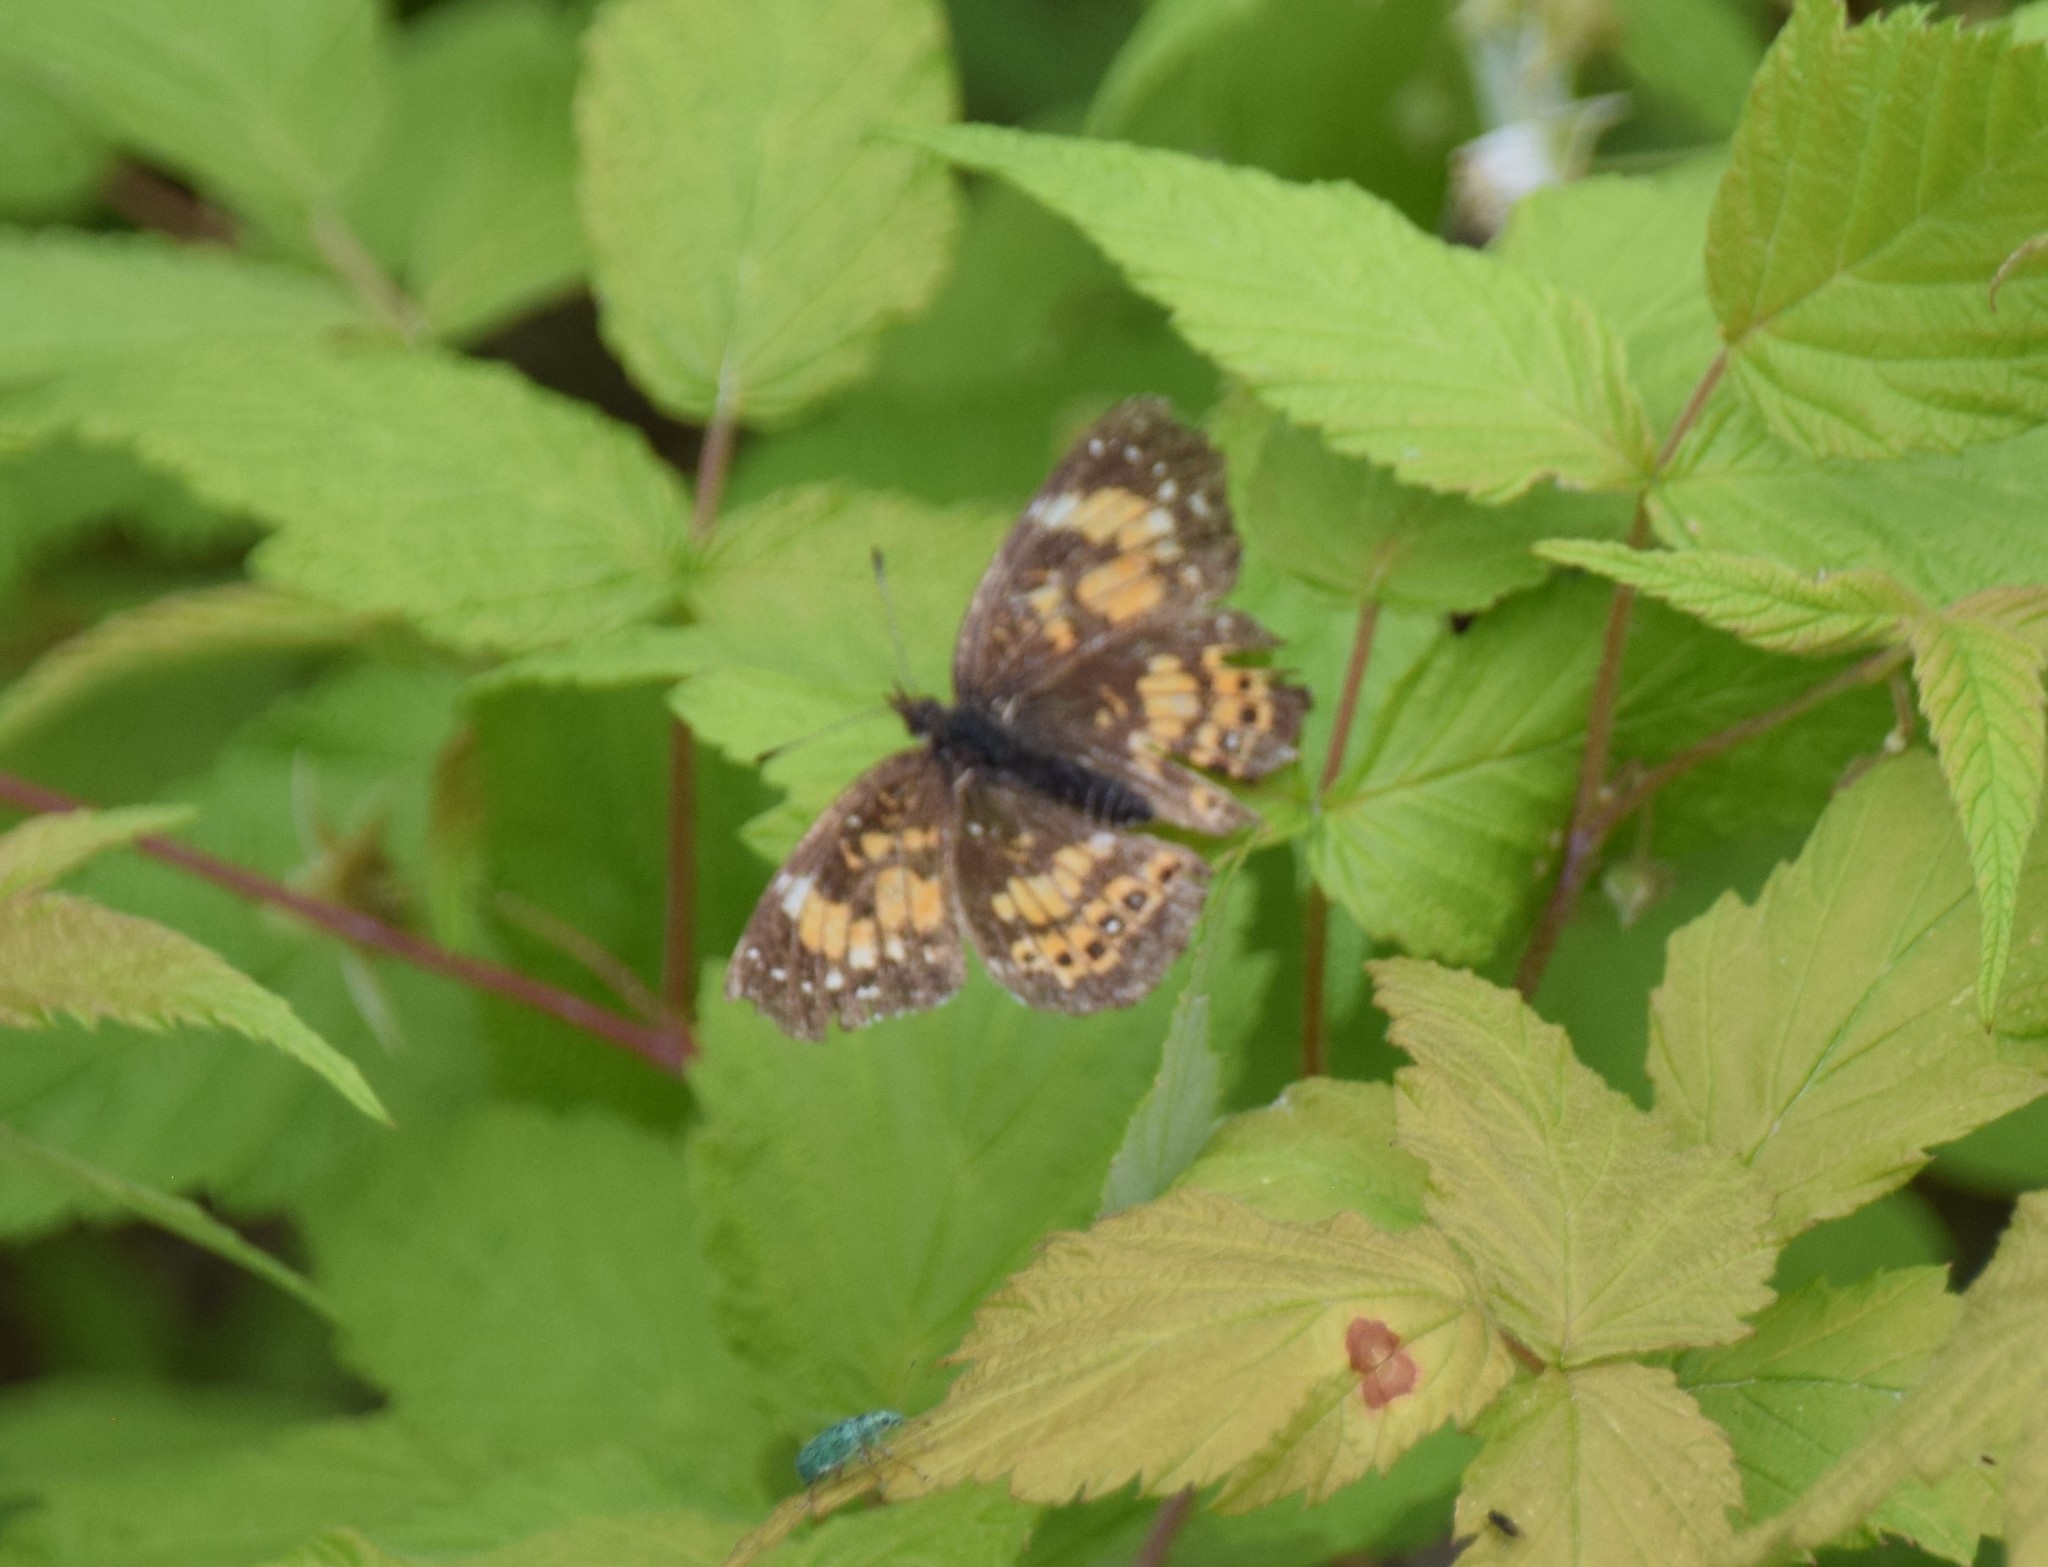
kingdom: Animalia
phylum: Arthropoda
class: Insecta
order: Lepidoptera
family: Nymphalidae
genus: Chlosyne
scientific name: Chlosyne nycteis
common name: Silvery checkerspot
